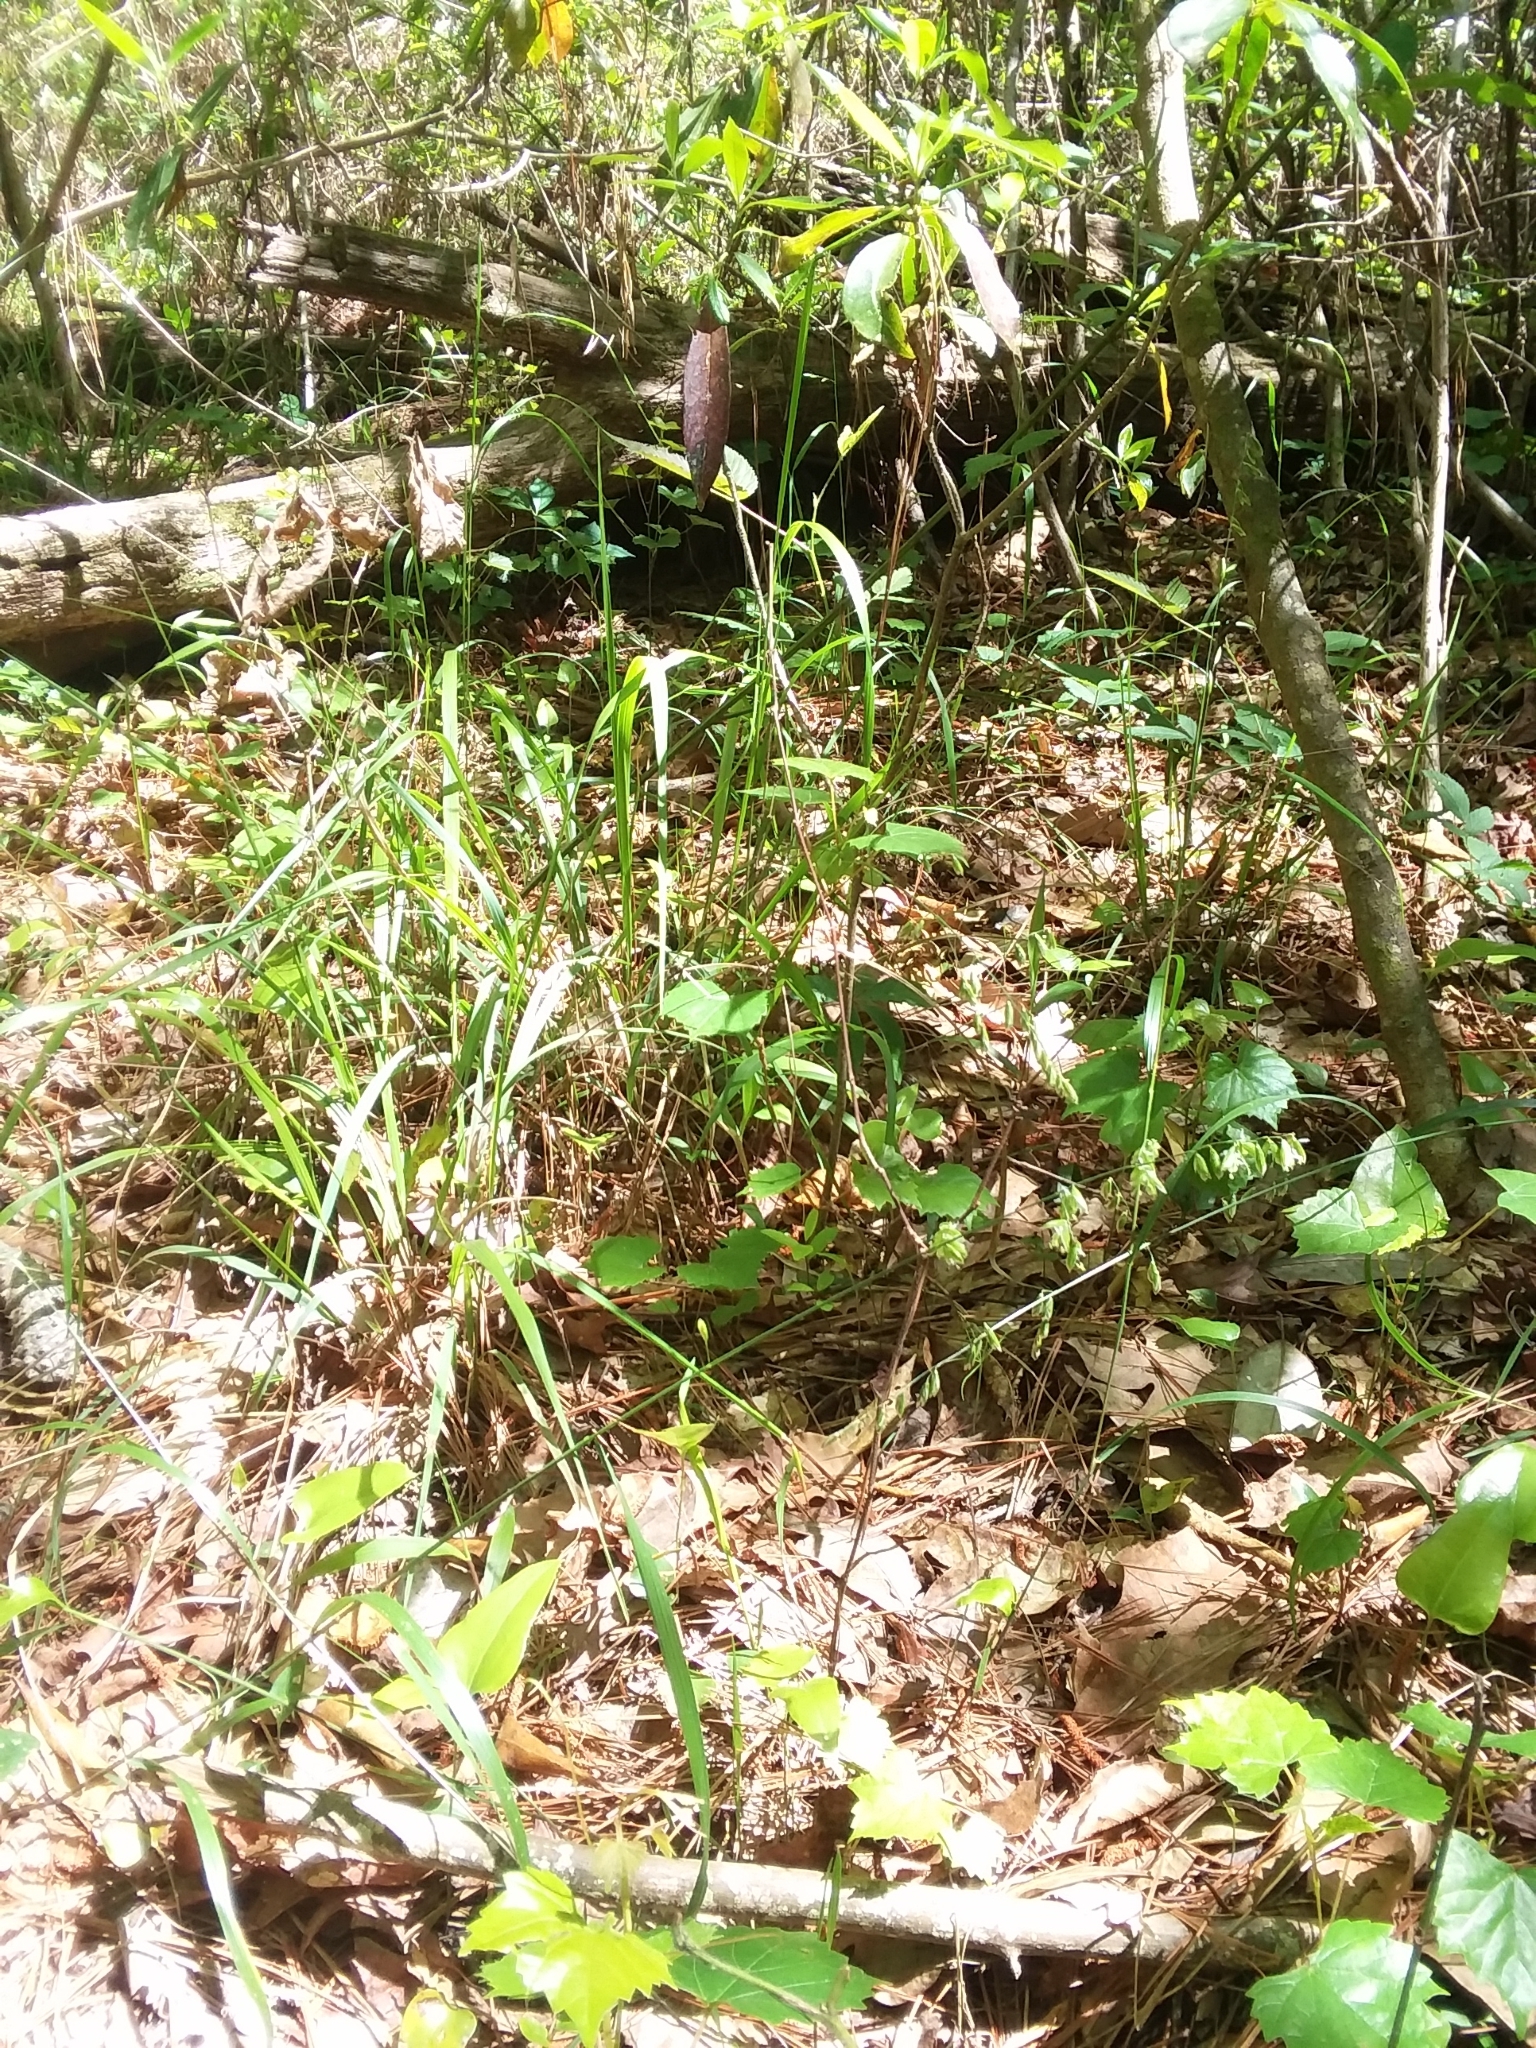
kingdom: Plantae
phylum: Tracheophyta
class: Liliopsida
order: Poales
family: Poaceae
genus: Melica
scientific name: Melica mutica
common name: Two-flower melic
